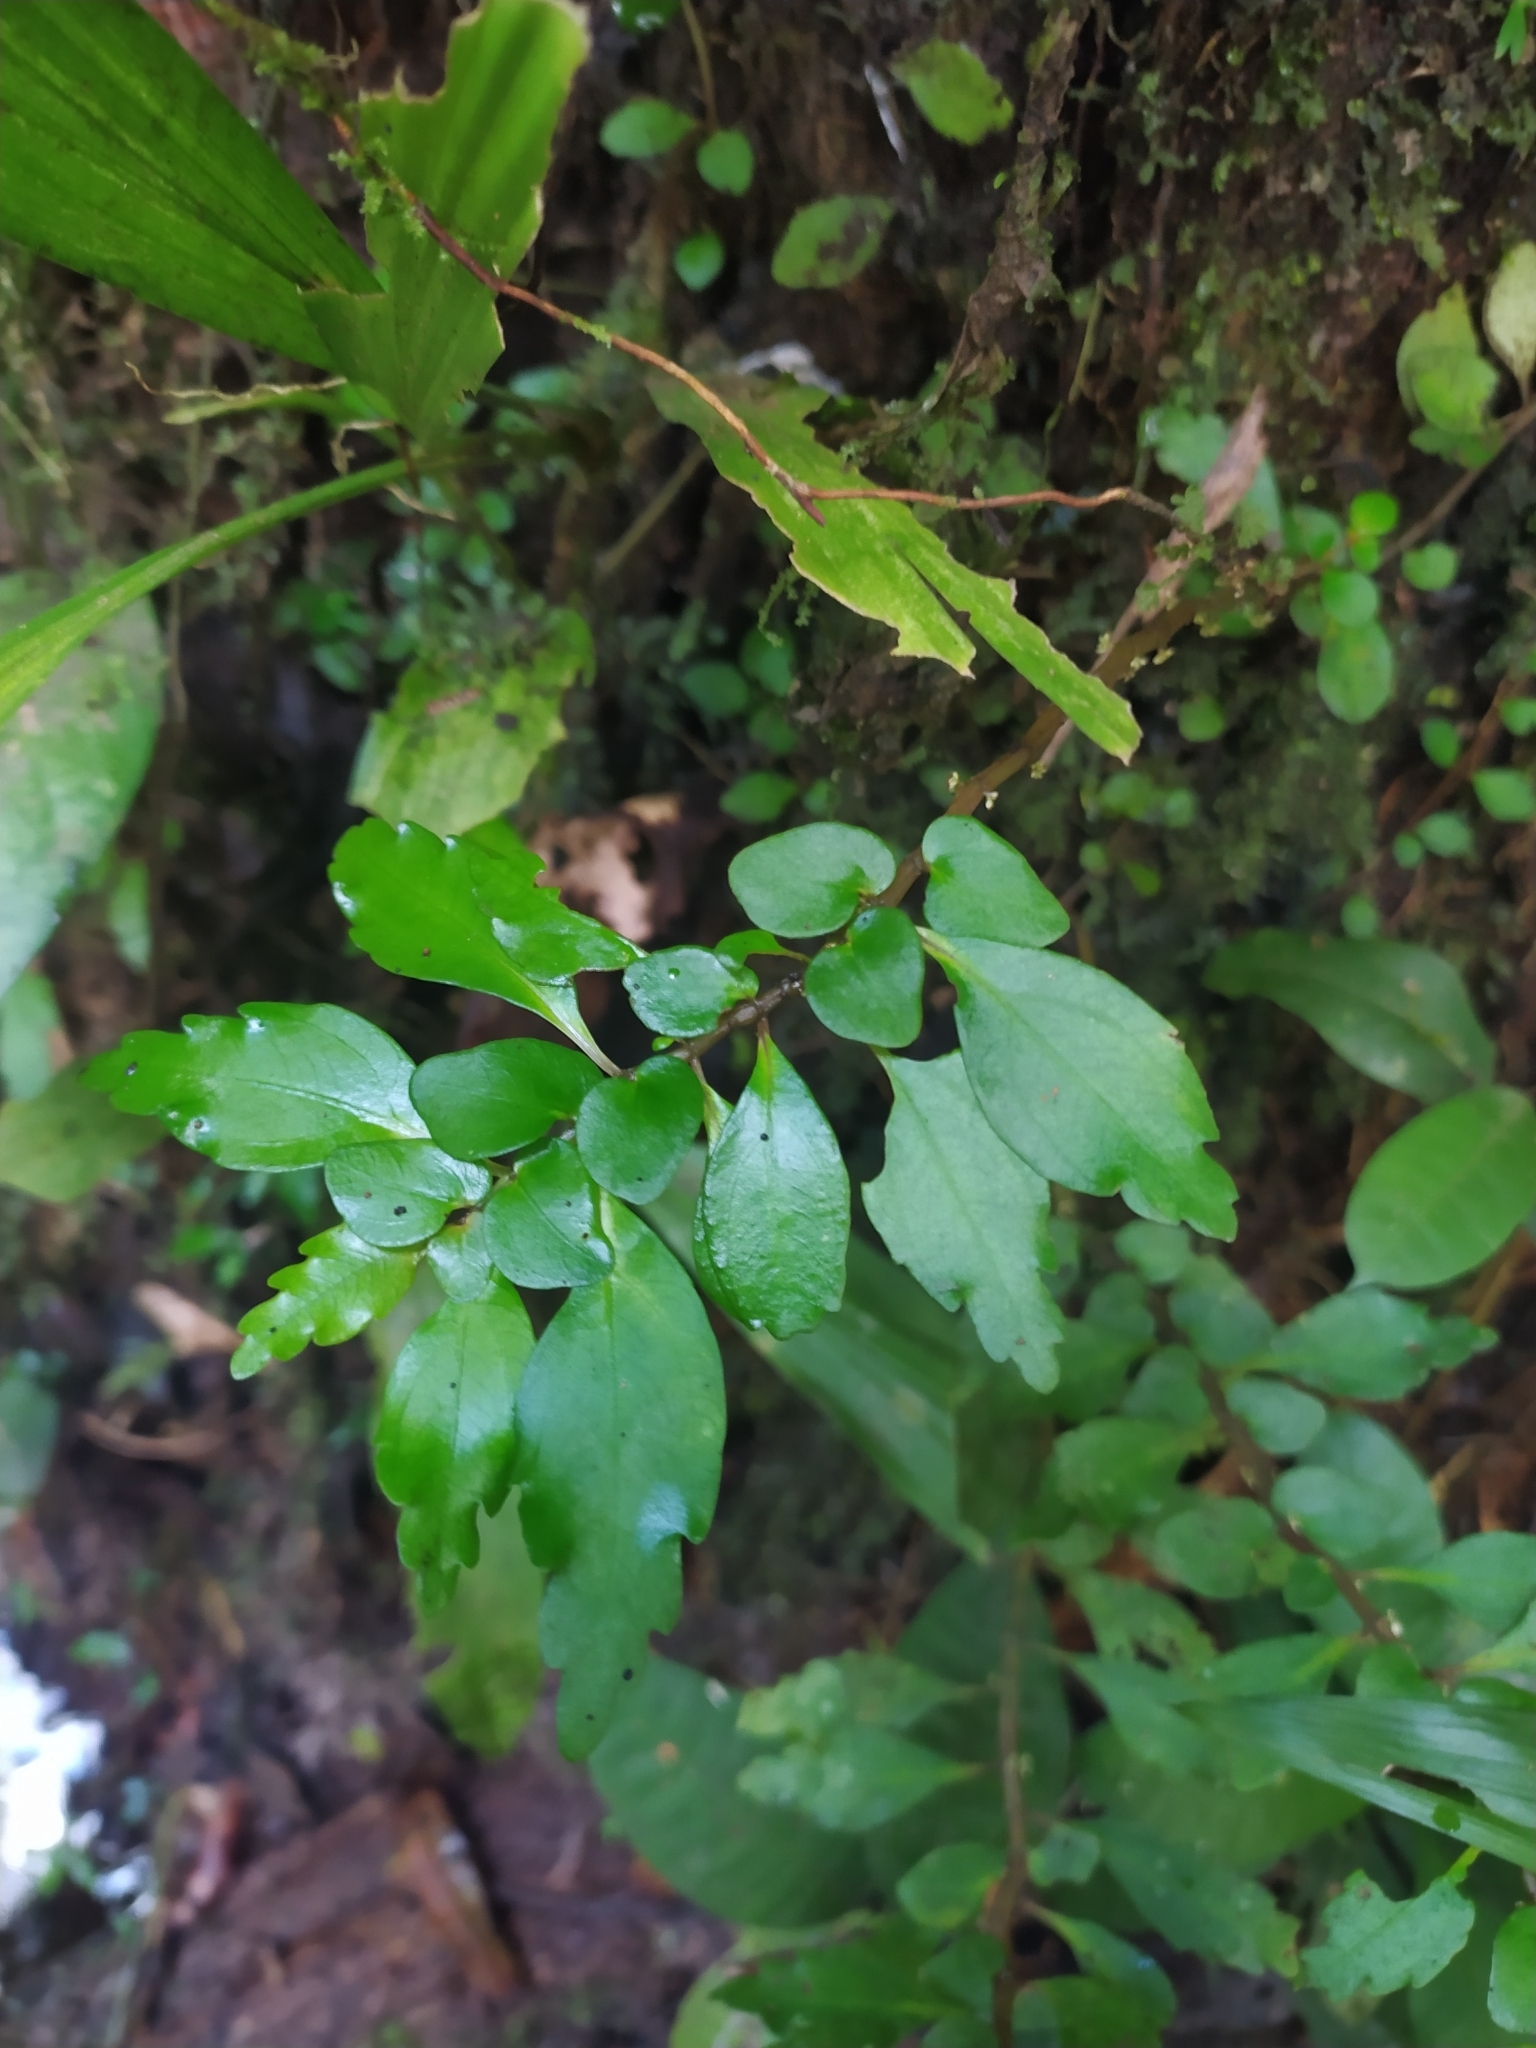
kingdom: Plantae
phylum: Tracheophyta
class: Magnoliopsida
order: Rosales
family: Urticaceae
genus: Pilea
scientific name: Pilea imparifolia
